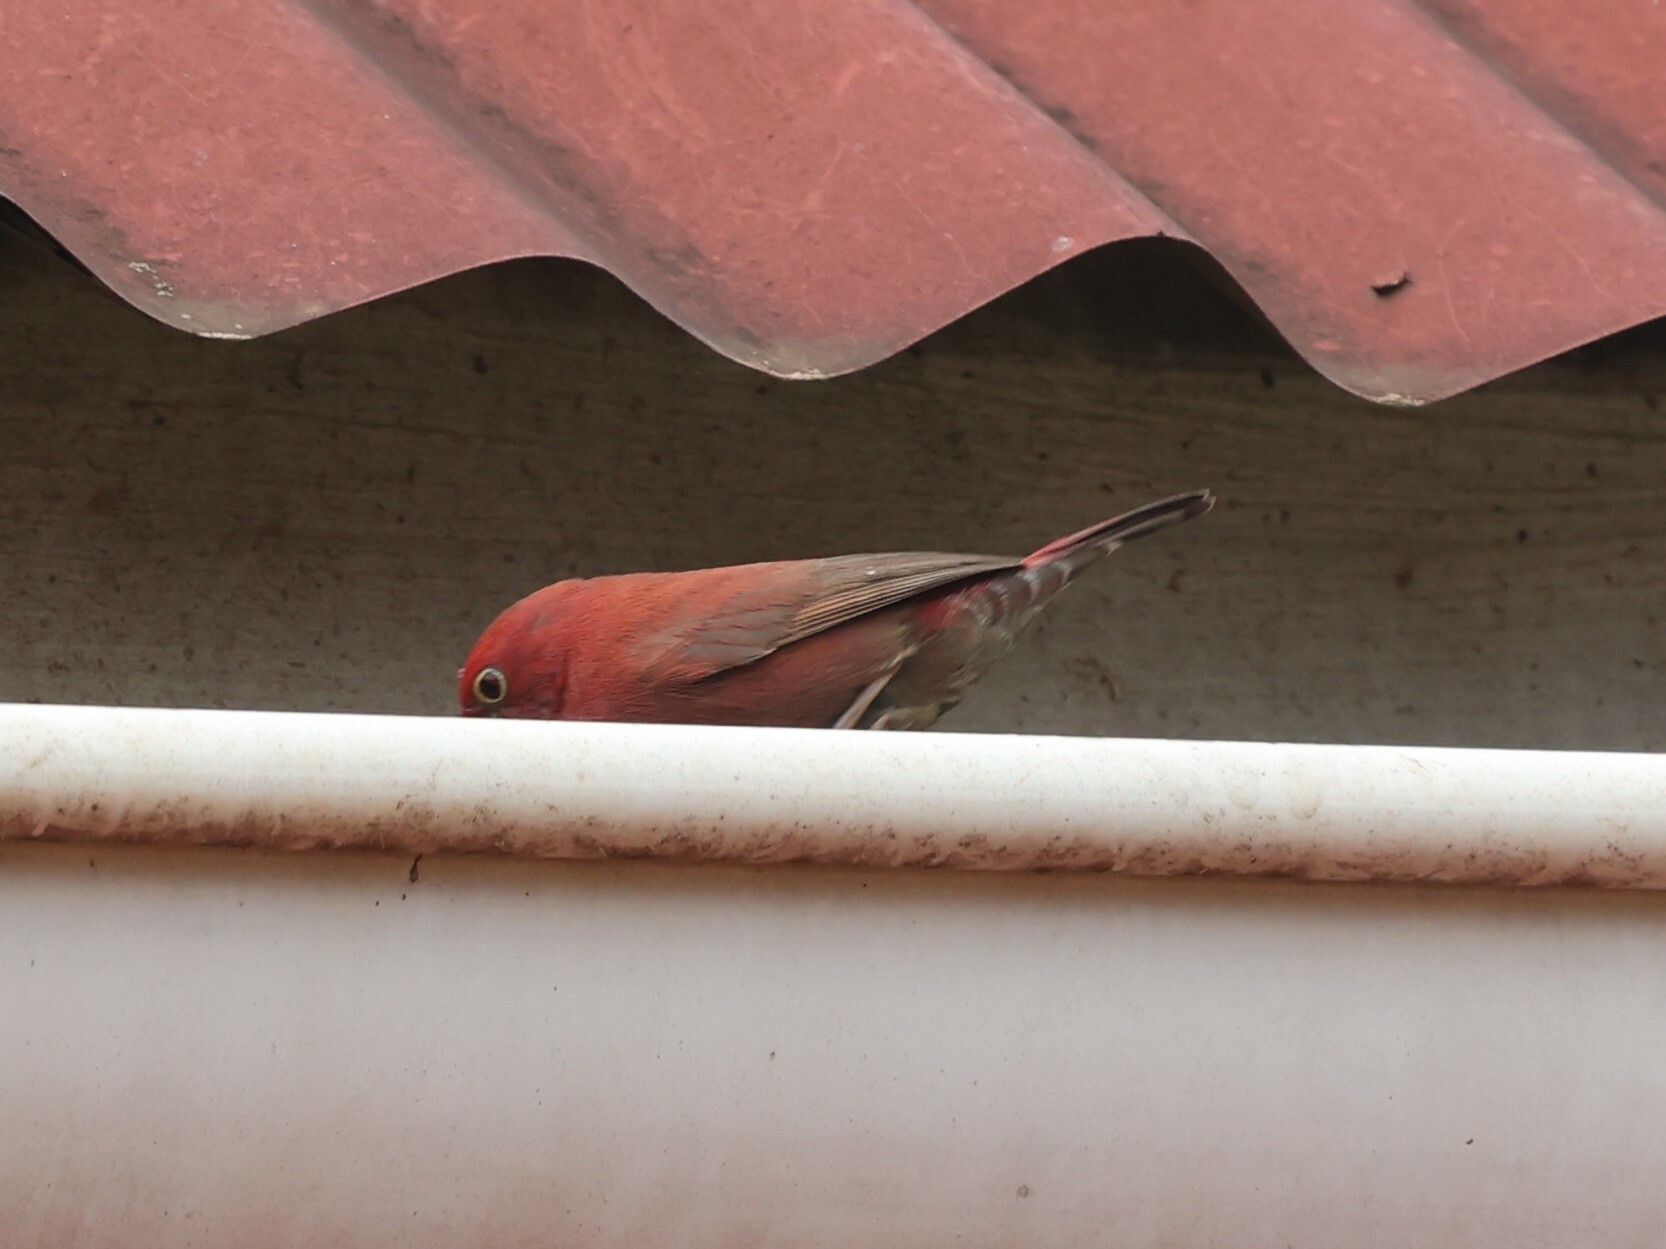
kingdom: Animalia
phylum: Chordata
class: Aves
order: Passeriformes
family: Estrildidae
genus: Lagonosticta
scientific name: Lagonosticta senegala
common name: Red-billed firefinch
